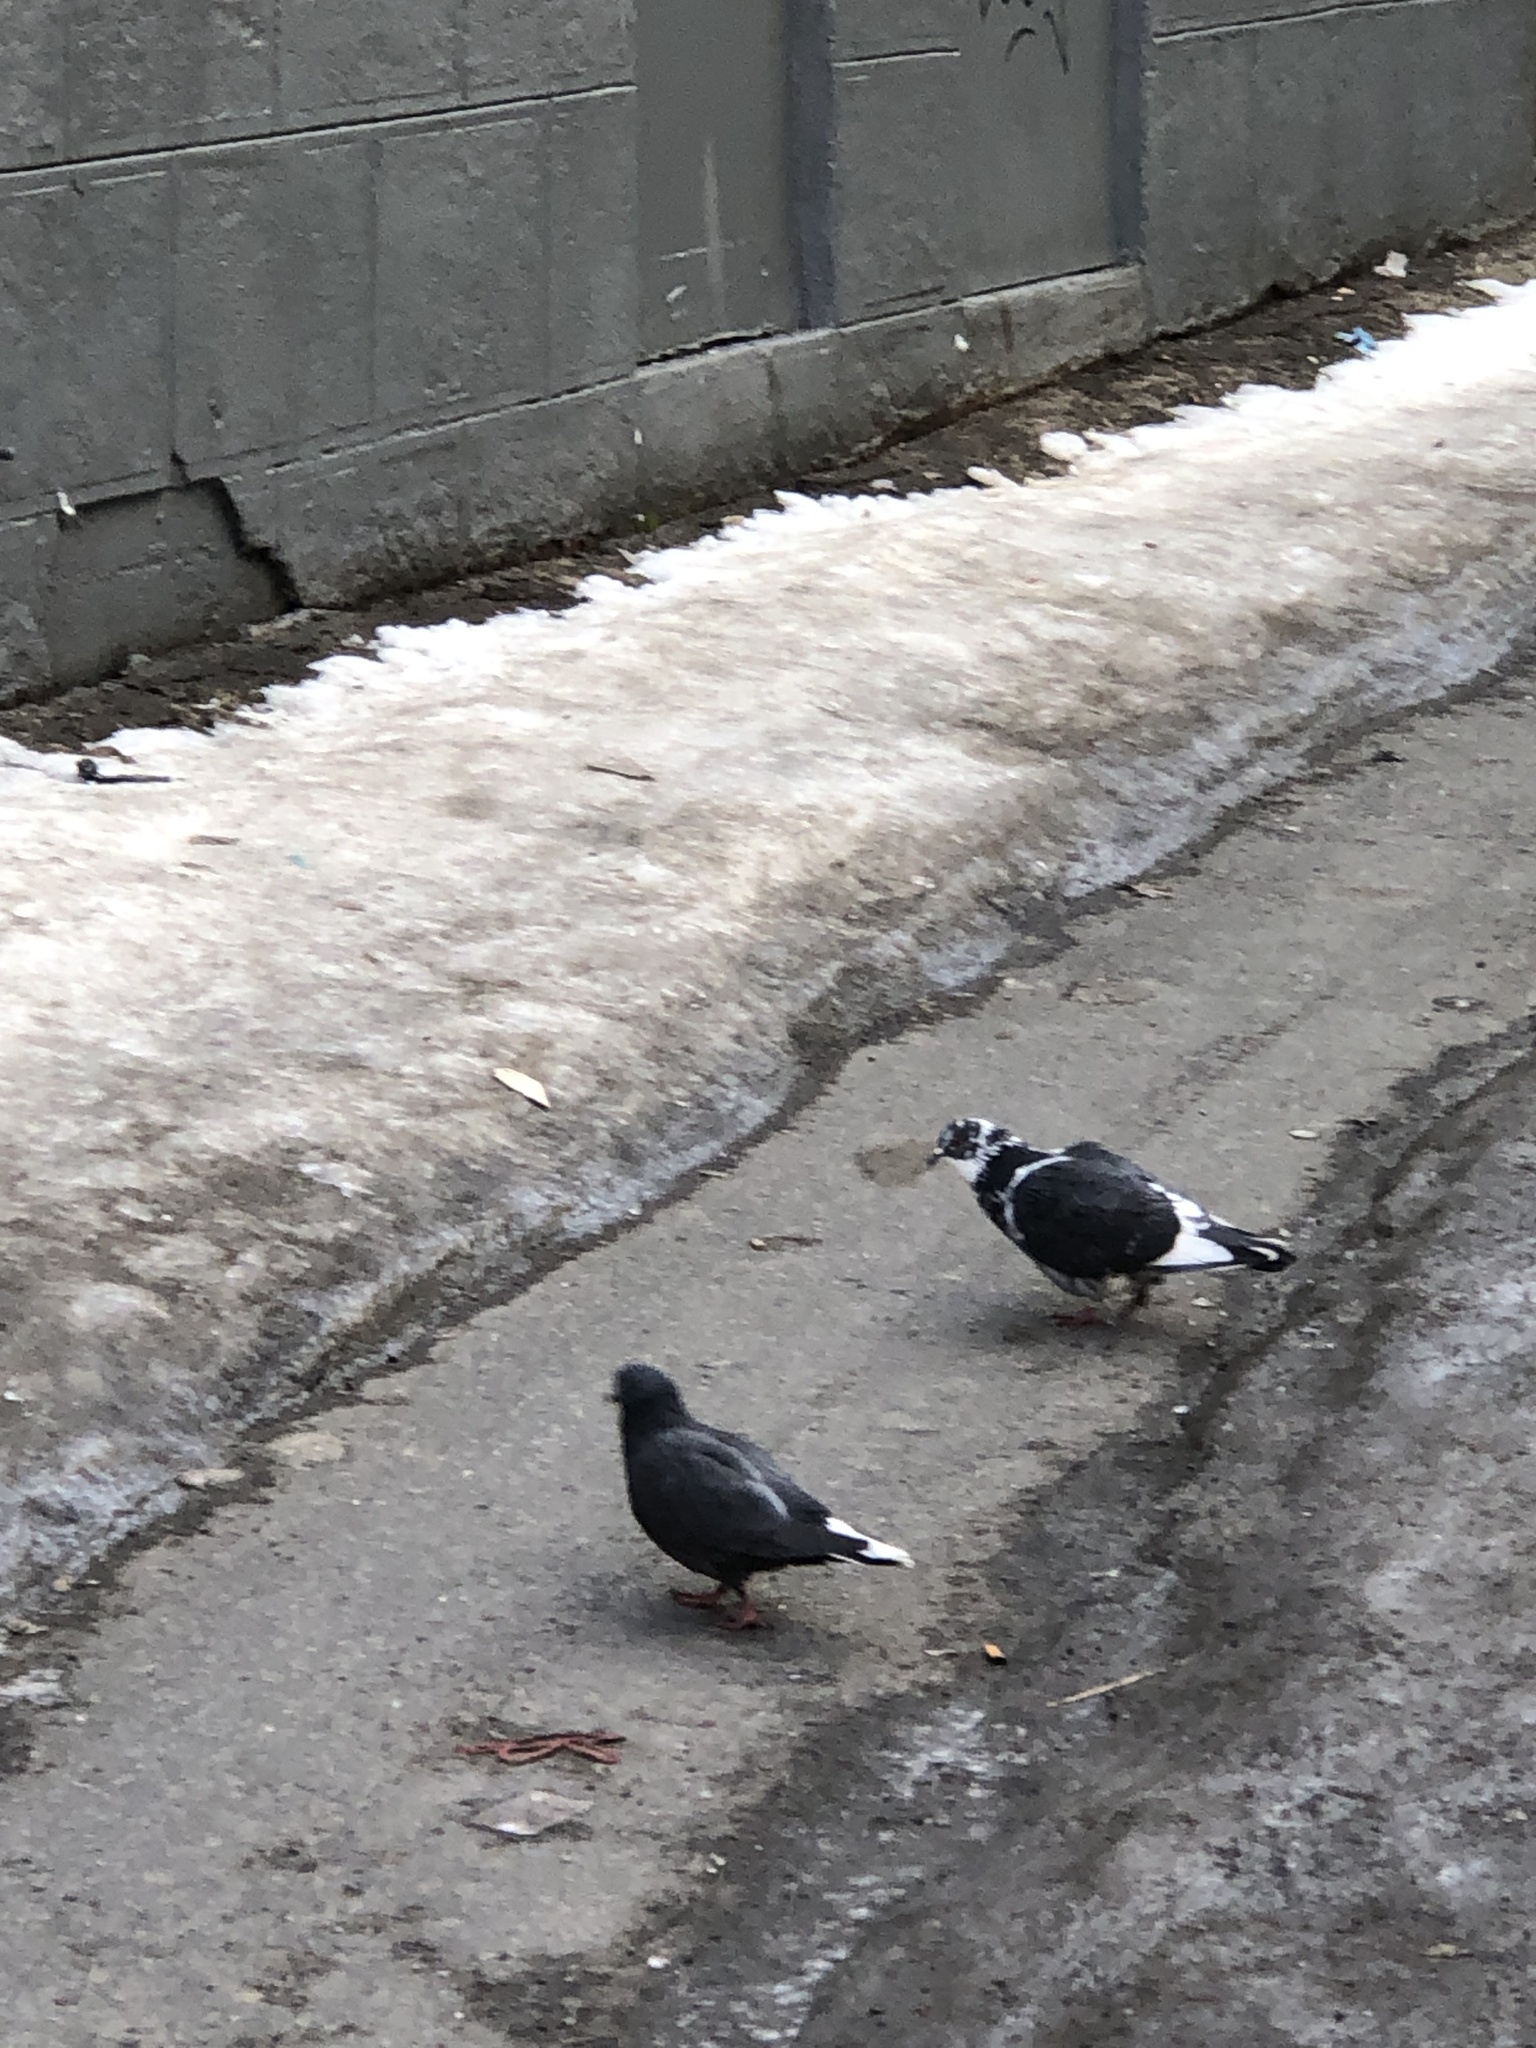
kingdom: Animalia
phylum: Chordata
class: Aves
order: Columbiformes
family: Columbidae
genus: Columba
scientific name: Columba livia
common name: Rock pigeon
